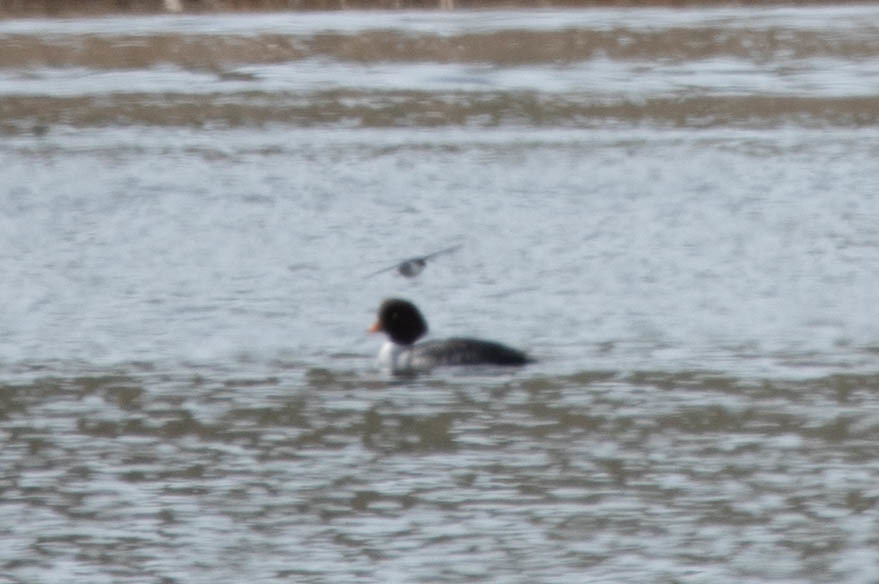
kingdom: Animalia
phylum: Chordata
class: Aves
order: Anseriformes
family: Anatidae
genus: Bucephala
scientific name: Bucephala islandica
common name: Barrow's goldeneye
